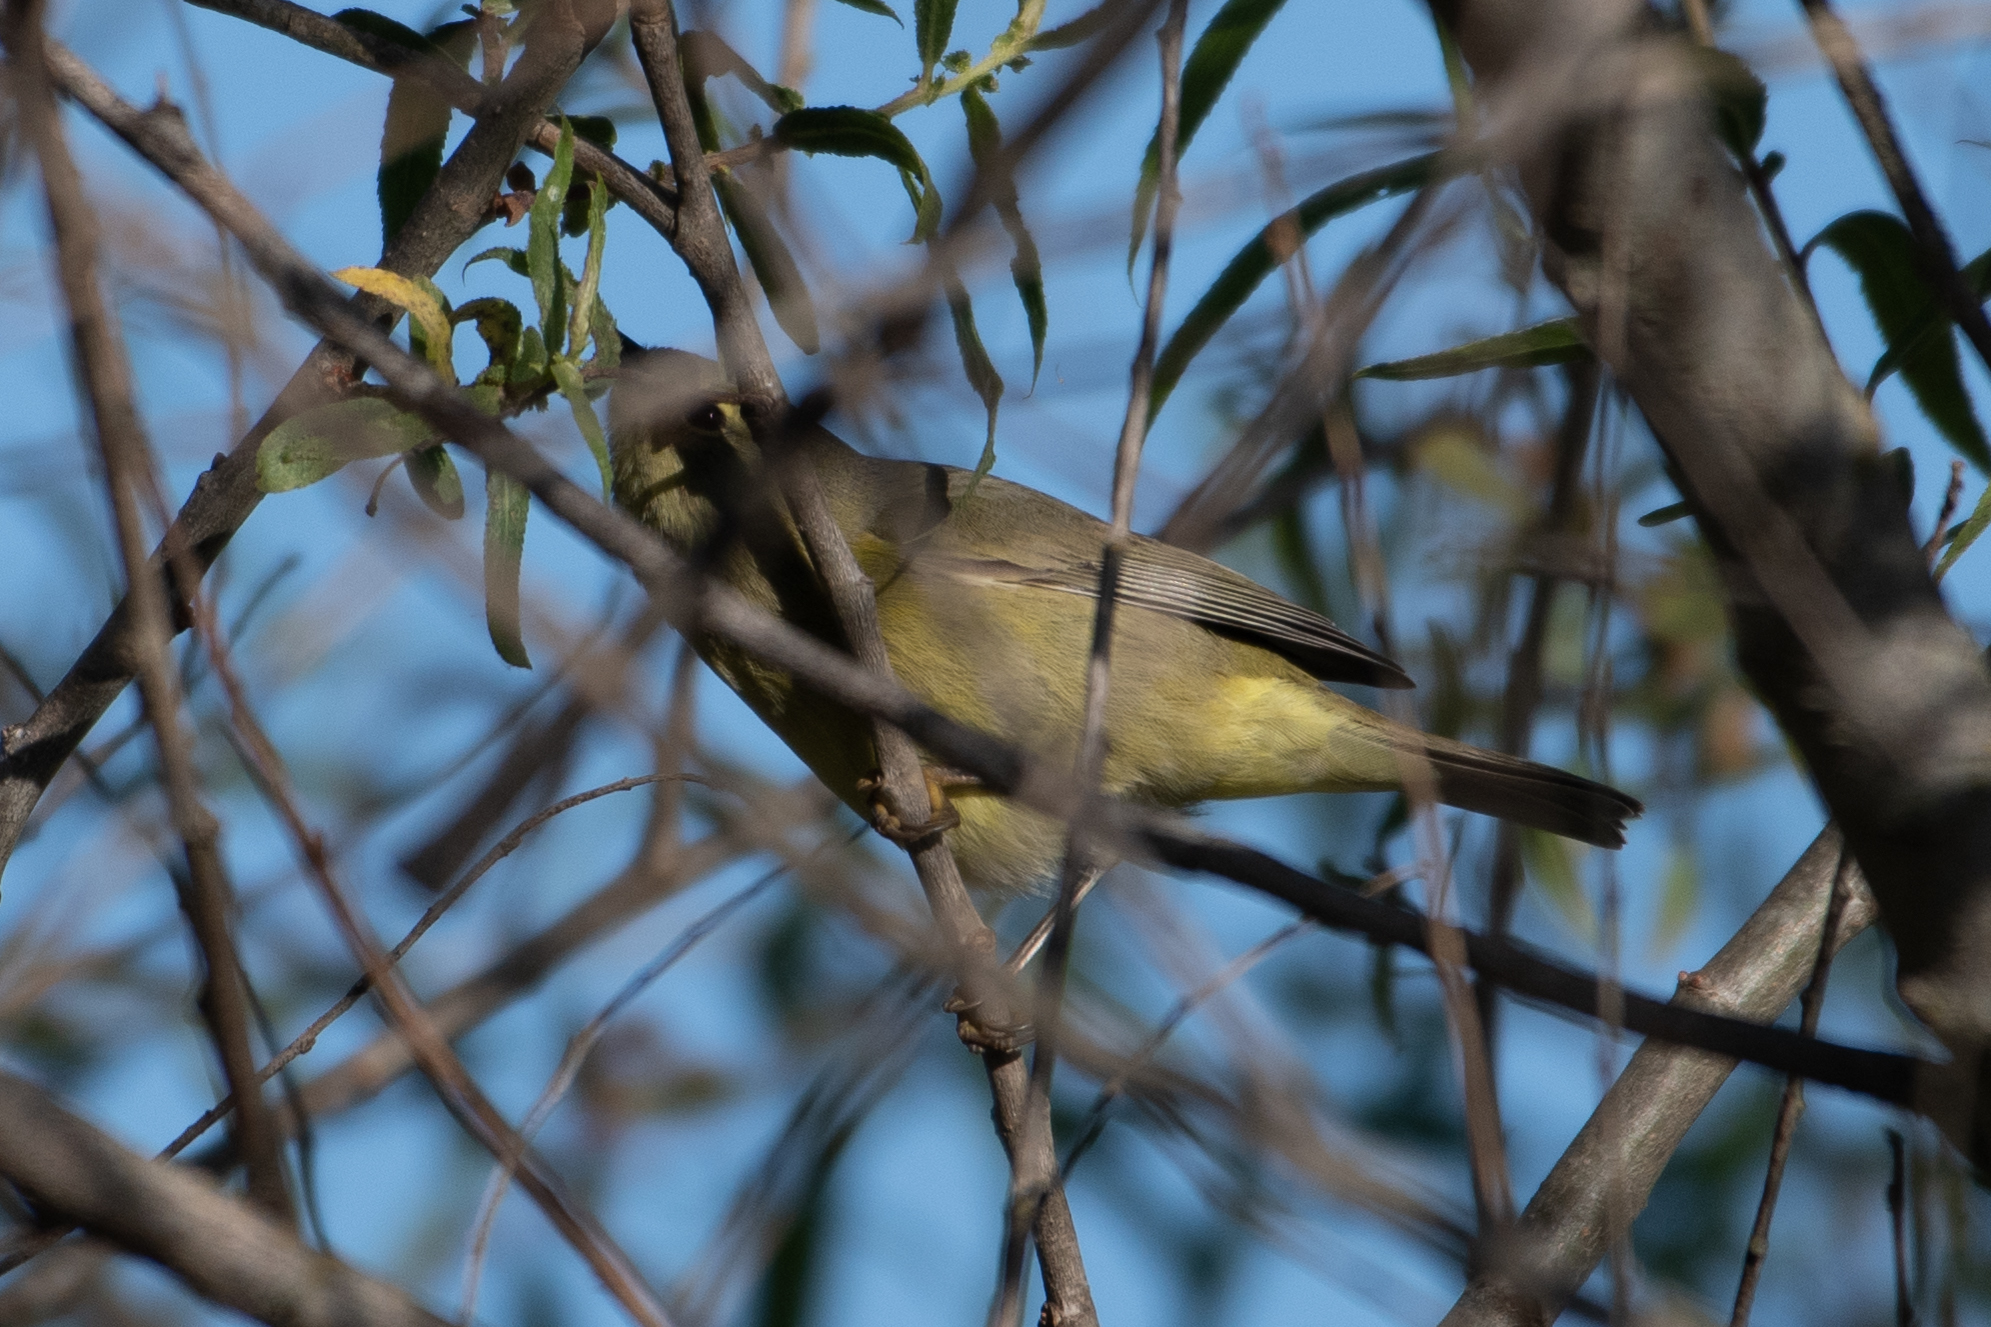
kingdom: Animalia
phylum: Chordata
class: Aves
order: Passeriformes
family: Parulidae
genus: Leiothlypis
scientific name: Leiothlypis celata
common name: Orange-crowned warbler
